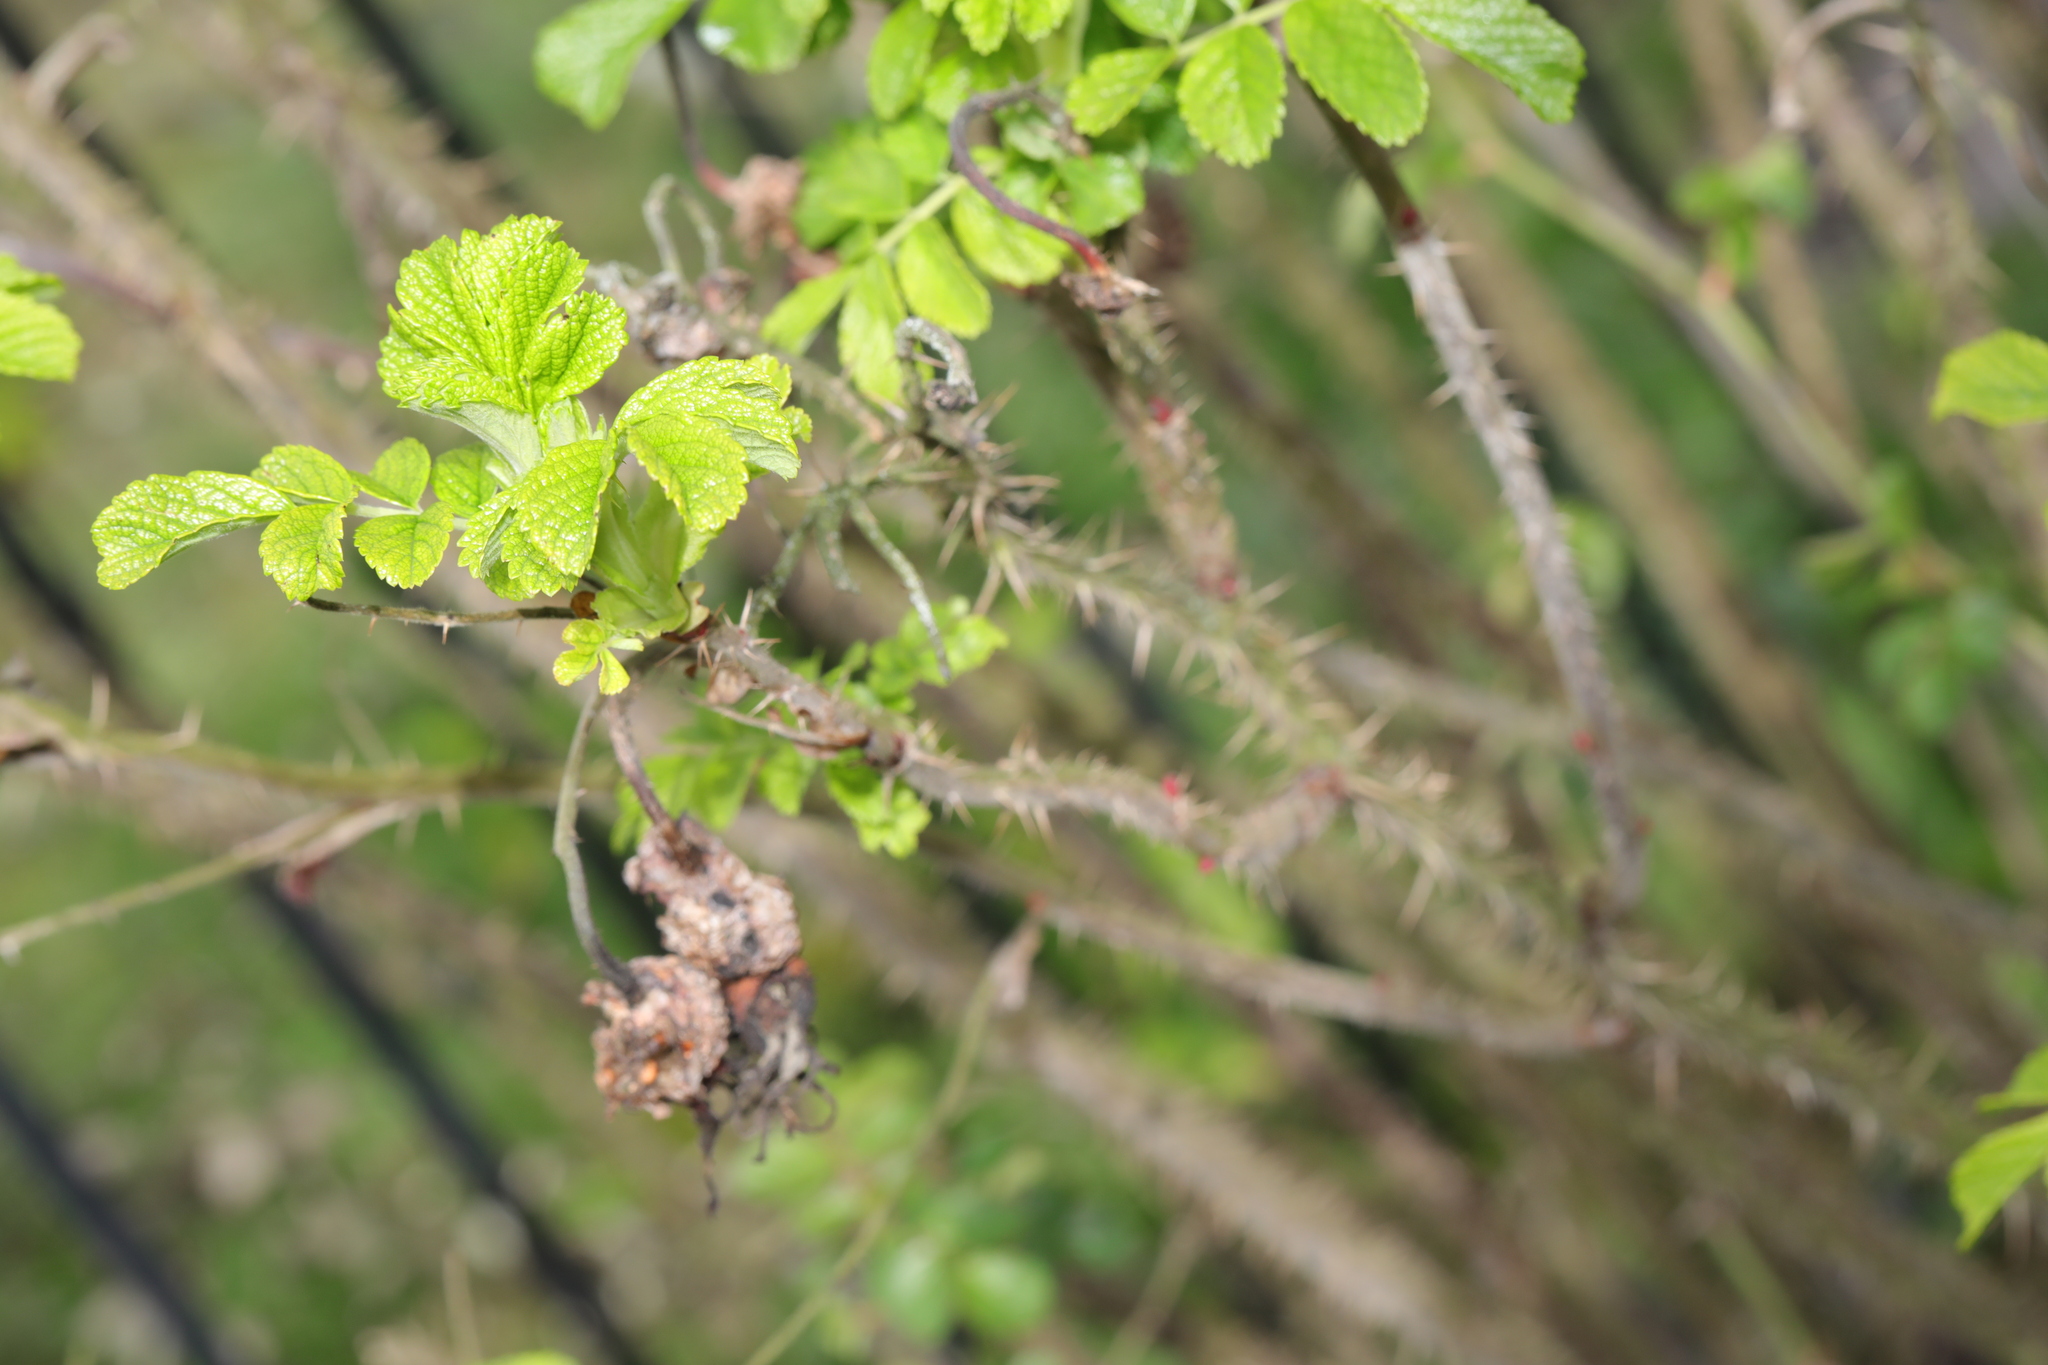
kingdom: Plantae
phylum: Tracheophyta
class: Magnoliopsida
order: Rosales
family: Rosaceae
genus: Rosa
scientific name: Rosa rugosa
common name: Japanese rose
